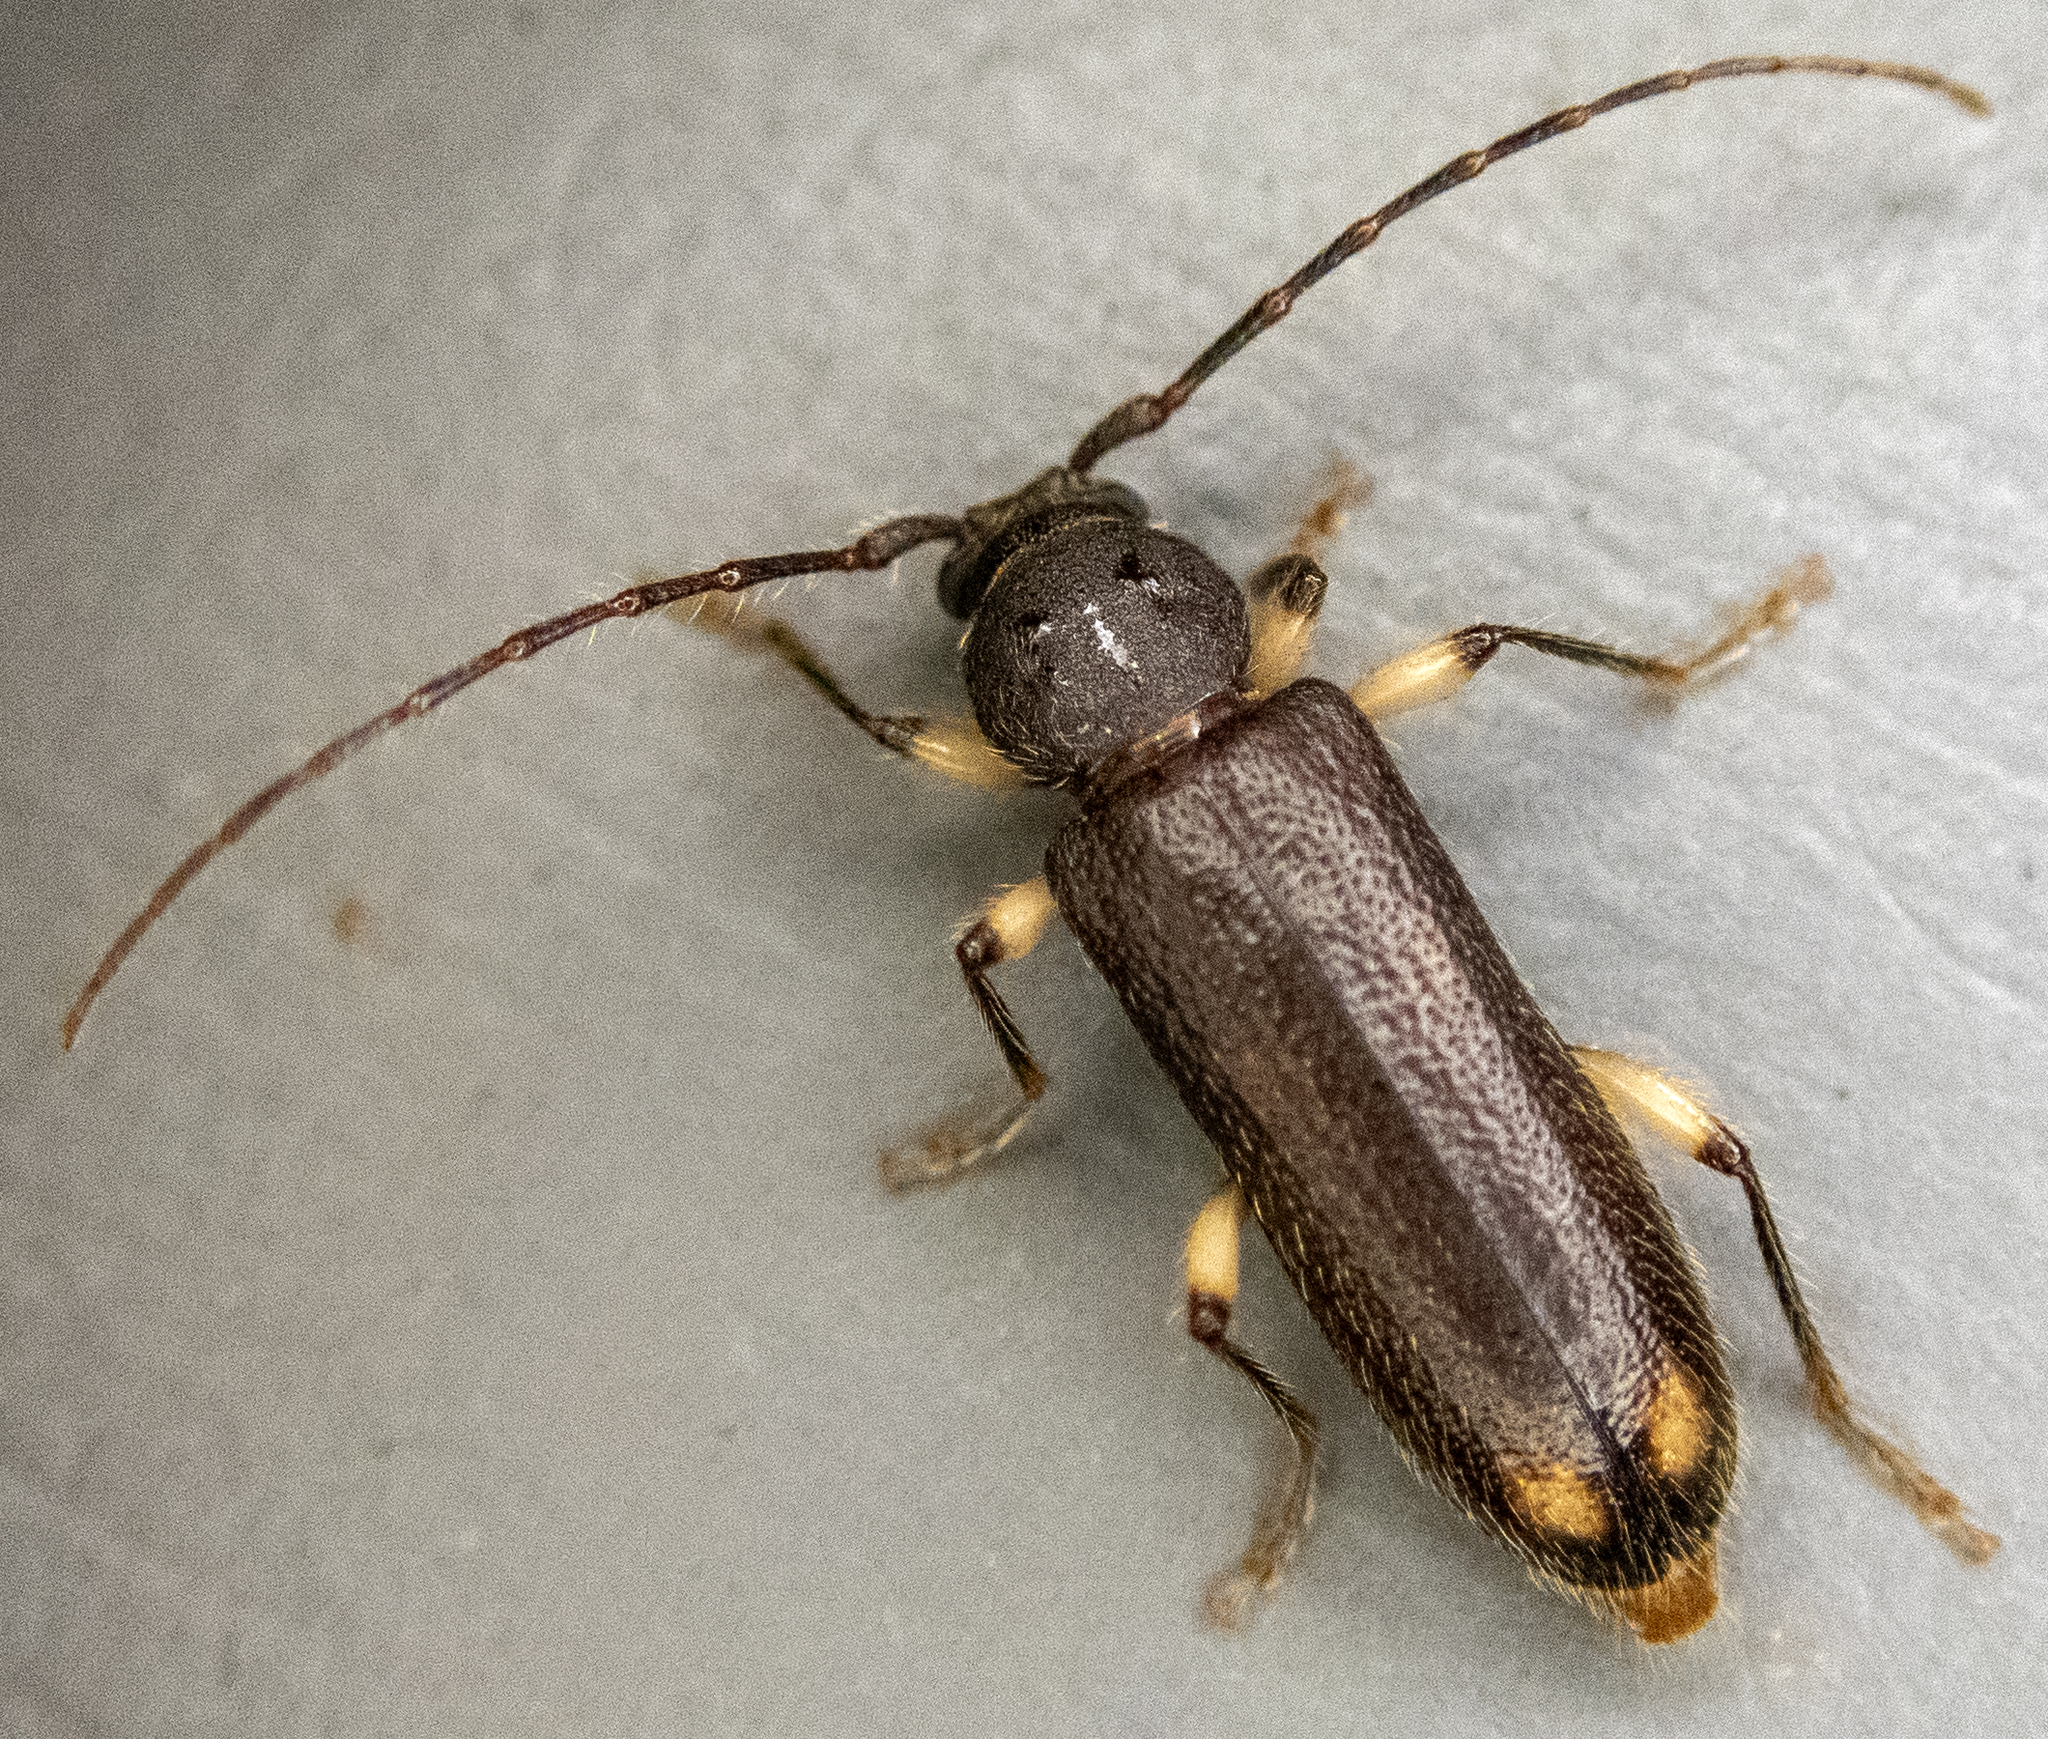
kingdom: Animalia
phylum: Arthropoda
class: Insecta
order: Coleoptera
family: Cerambycidae
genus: Tylonotus
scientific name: Tylonotus bimaculatus
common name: Ash and privet borer
